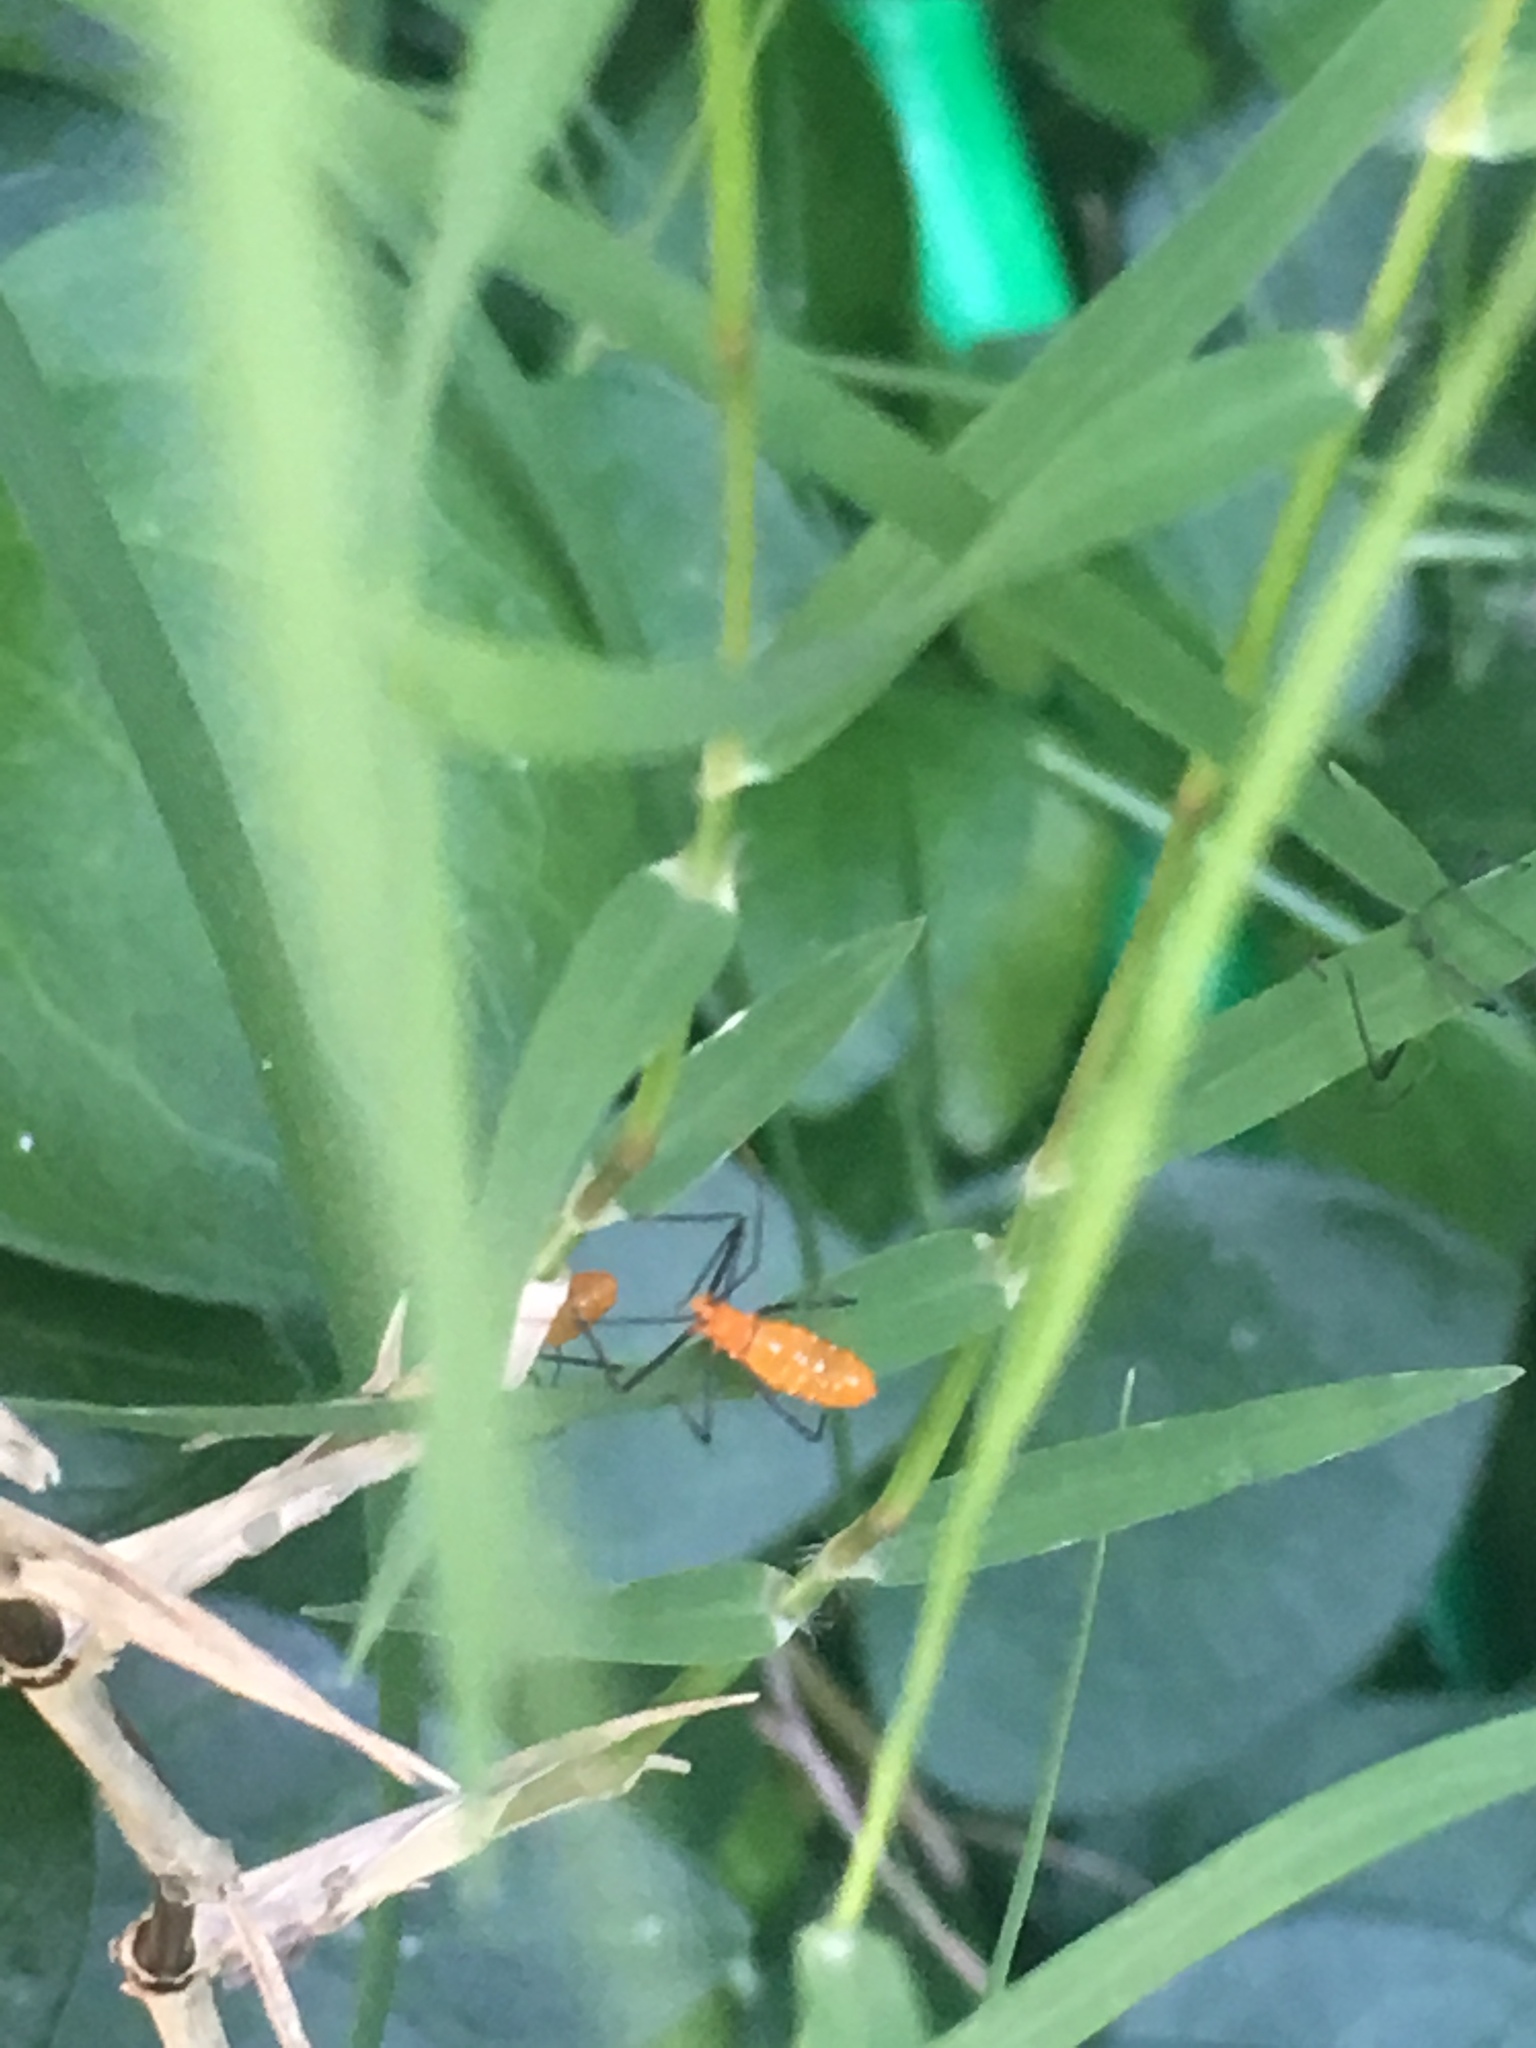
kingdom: Animalia
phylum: Arthropoda
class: Insecta
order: Hemiptera
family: Reduviidae
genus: Zelus
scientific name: Zelus longipes
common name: Milkweed assassin bug
